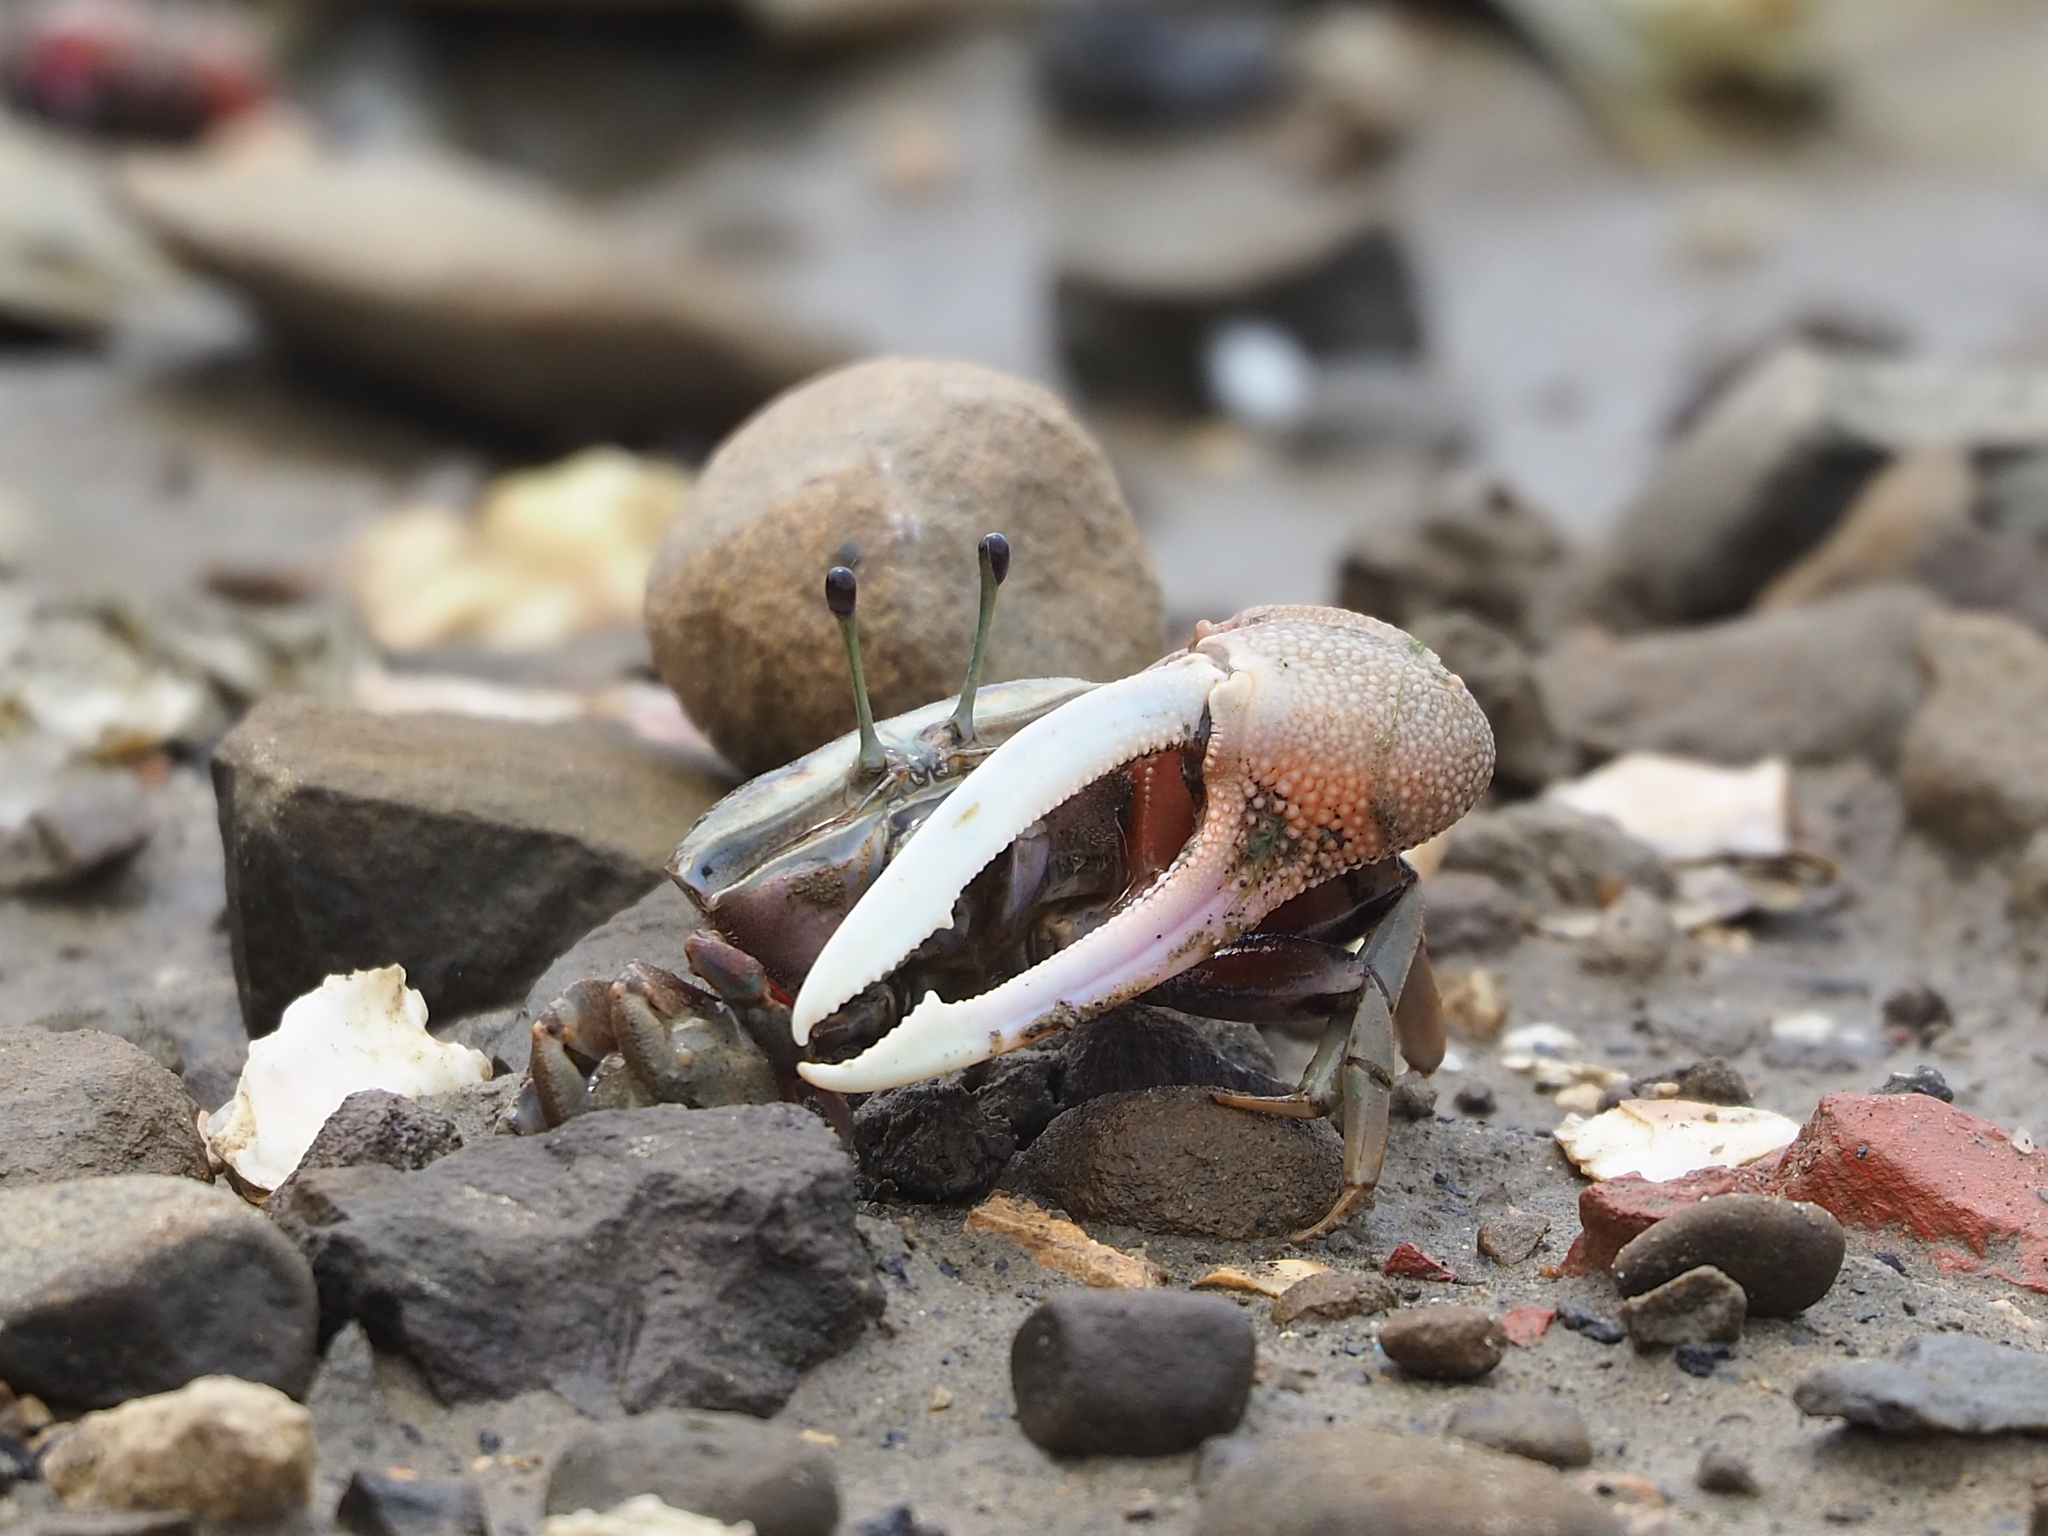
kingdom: Animalia
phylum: Arthropoda
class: Malacostraca
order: Decapoda
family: Ocypodidae
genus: Tubuca
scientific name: Tubuca arcuata
